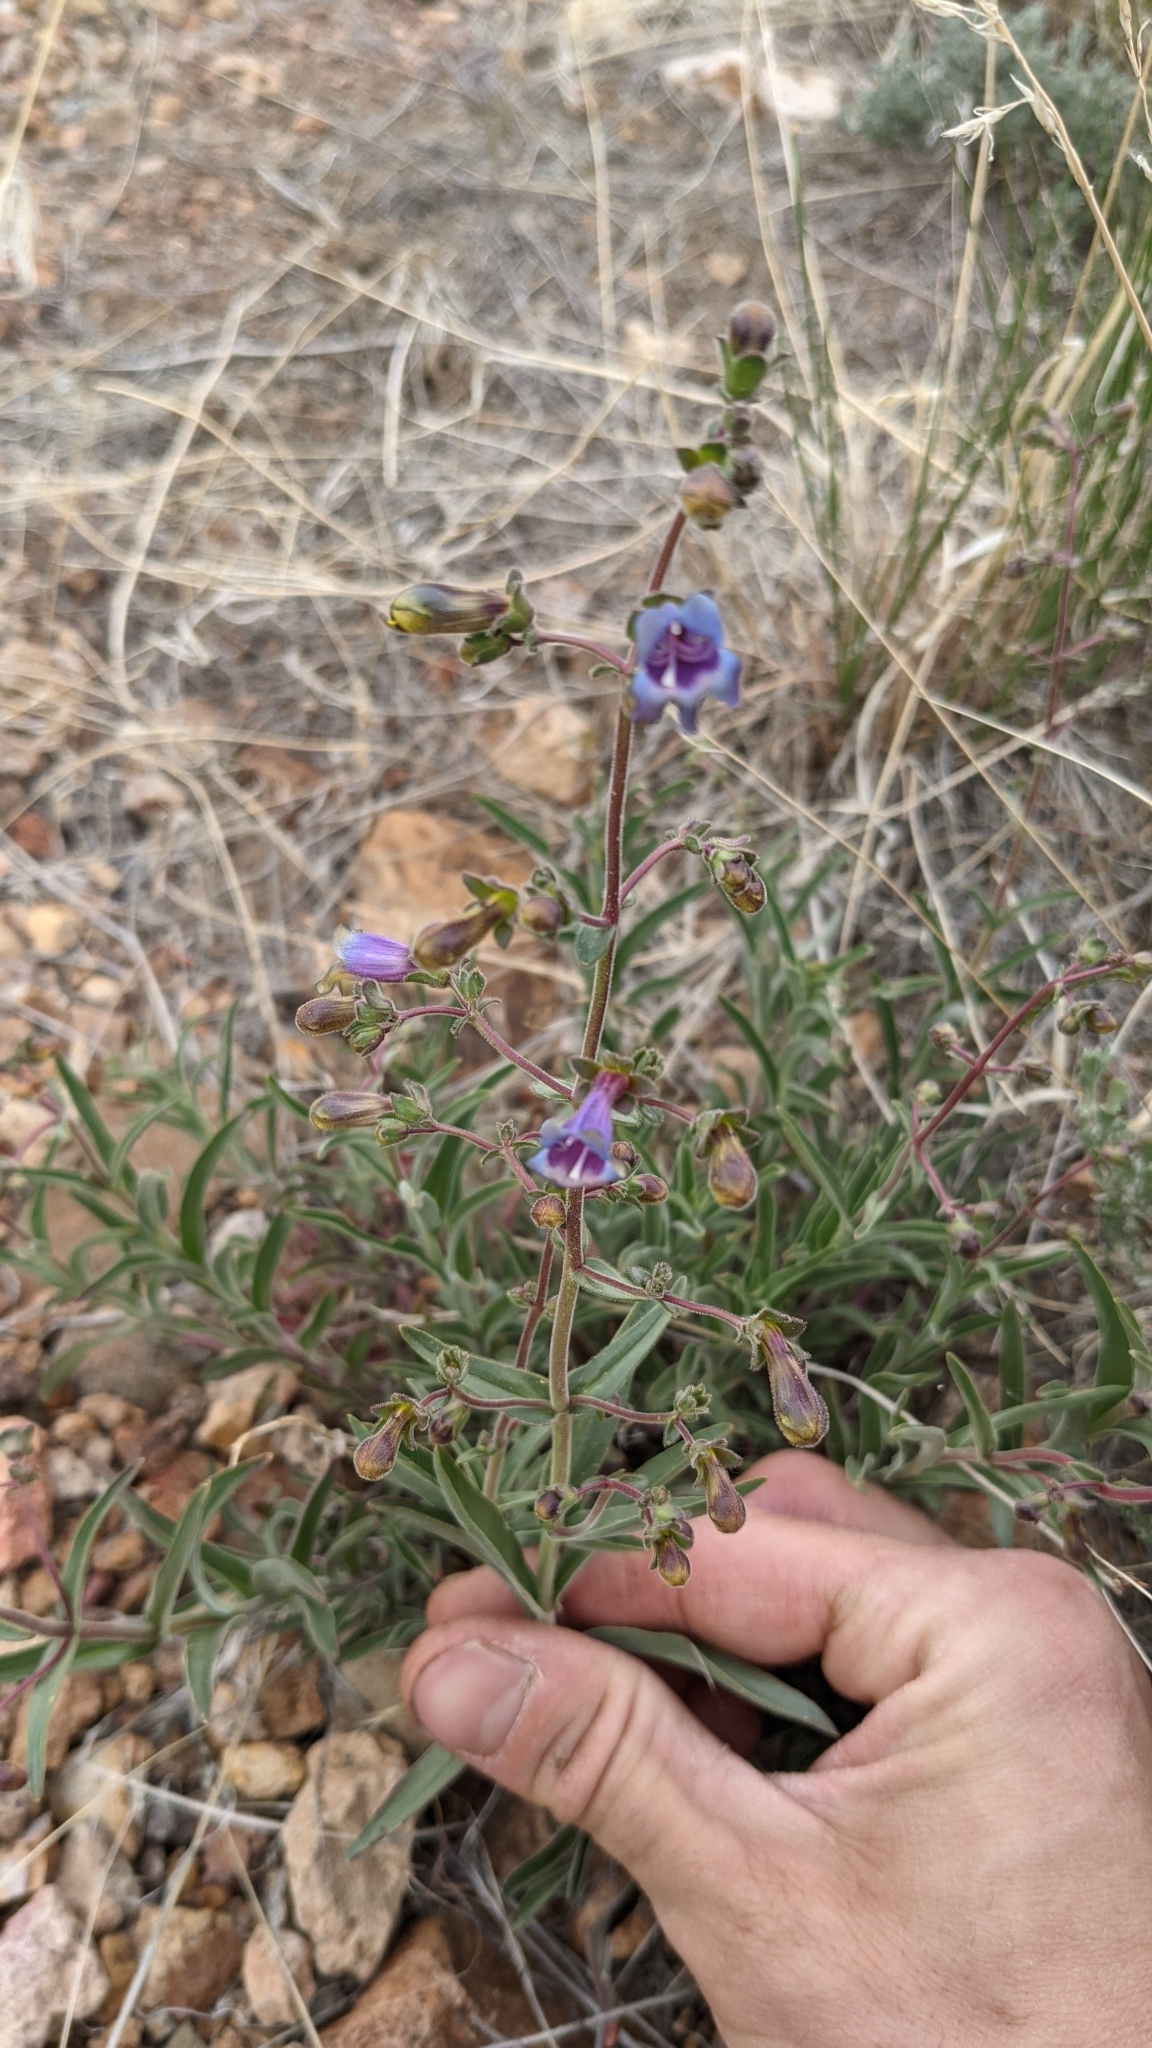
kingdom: Plantae
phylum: Tracheophyta
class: Magnoliopsida
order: Lamiales
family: Plantaginaceae
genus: Penstemon
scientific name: Penstemon roezlii
